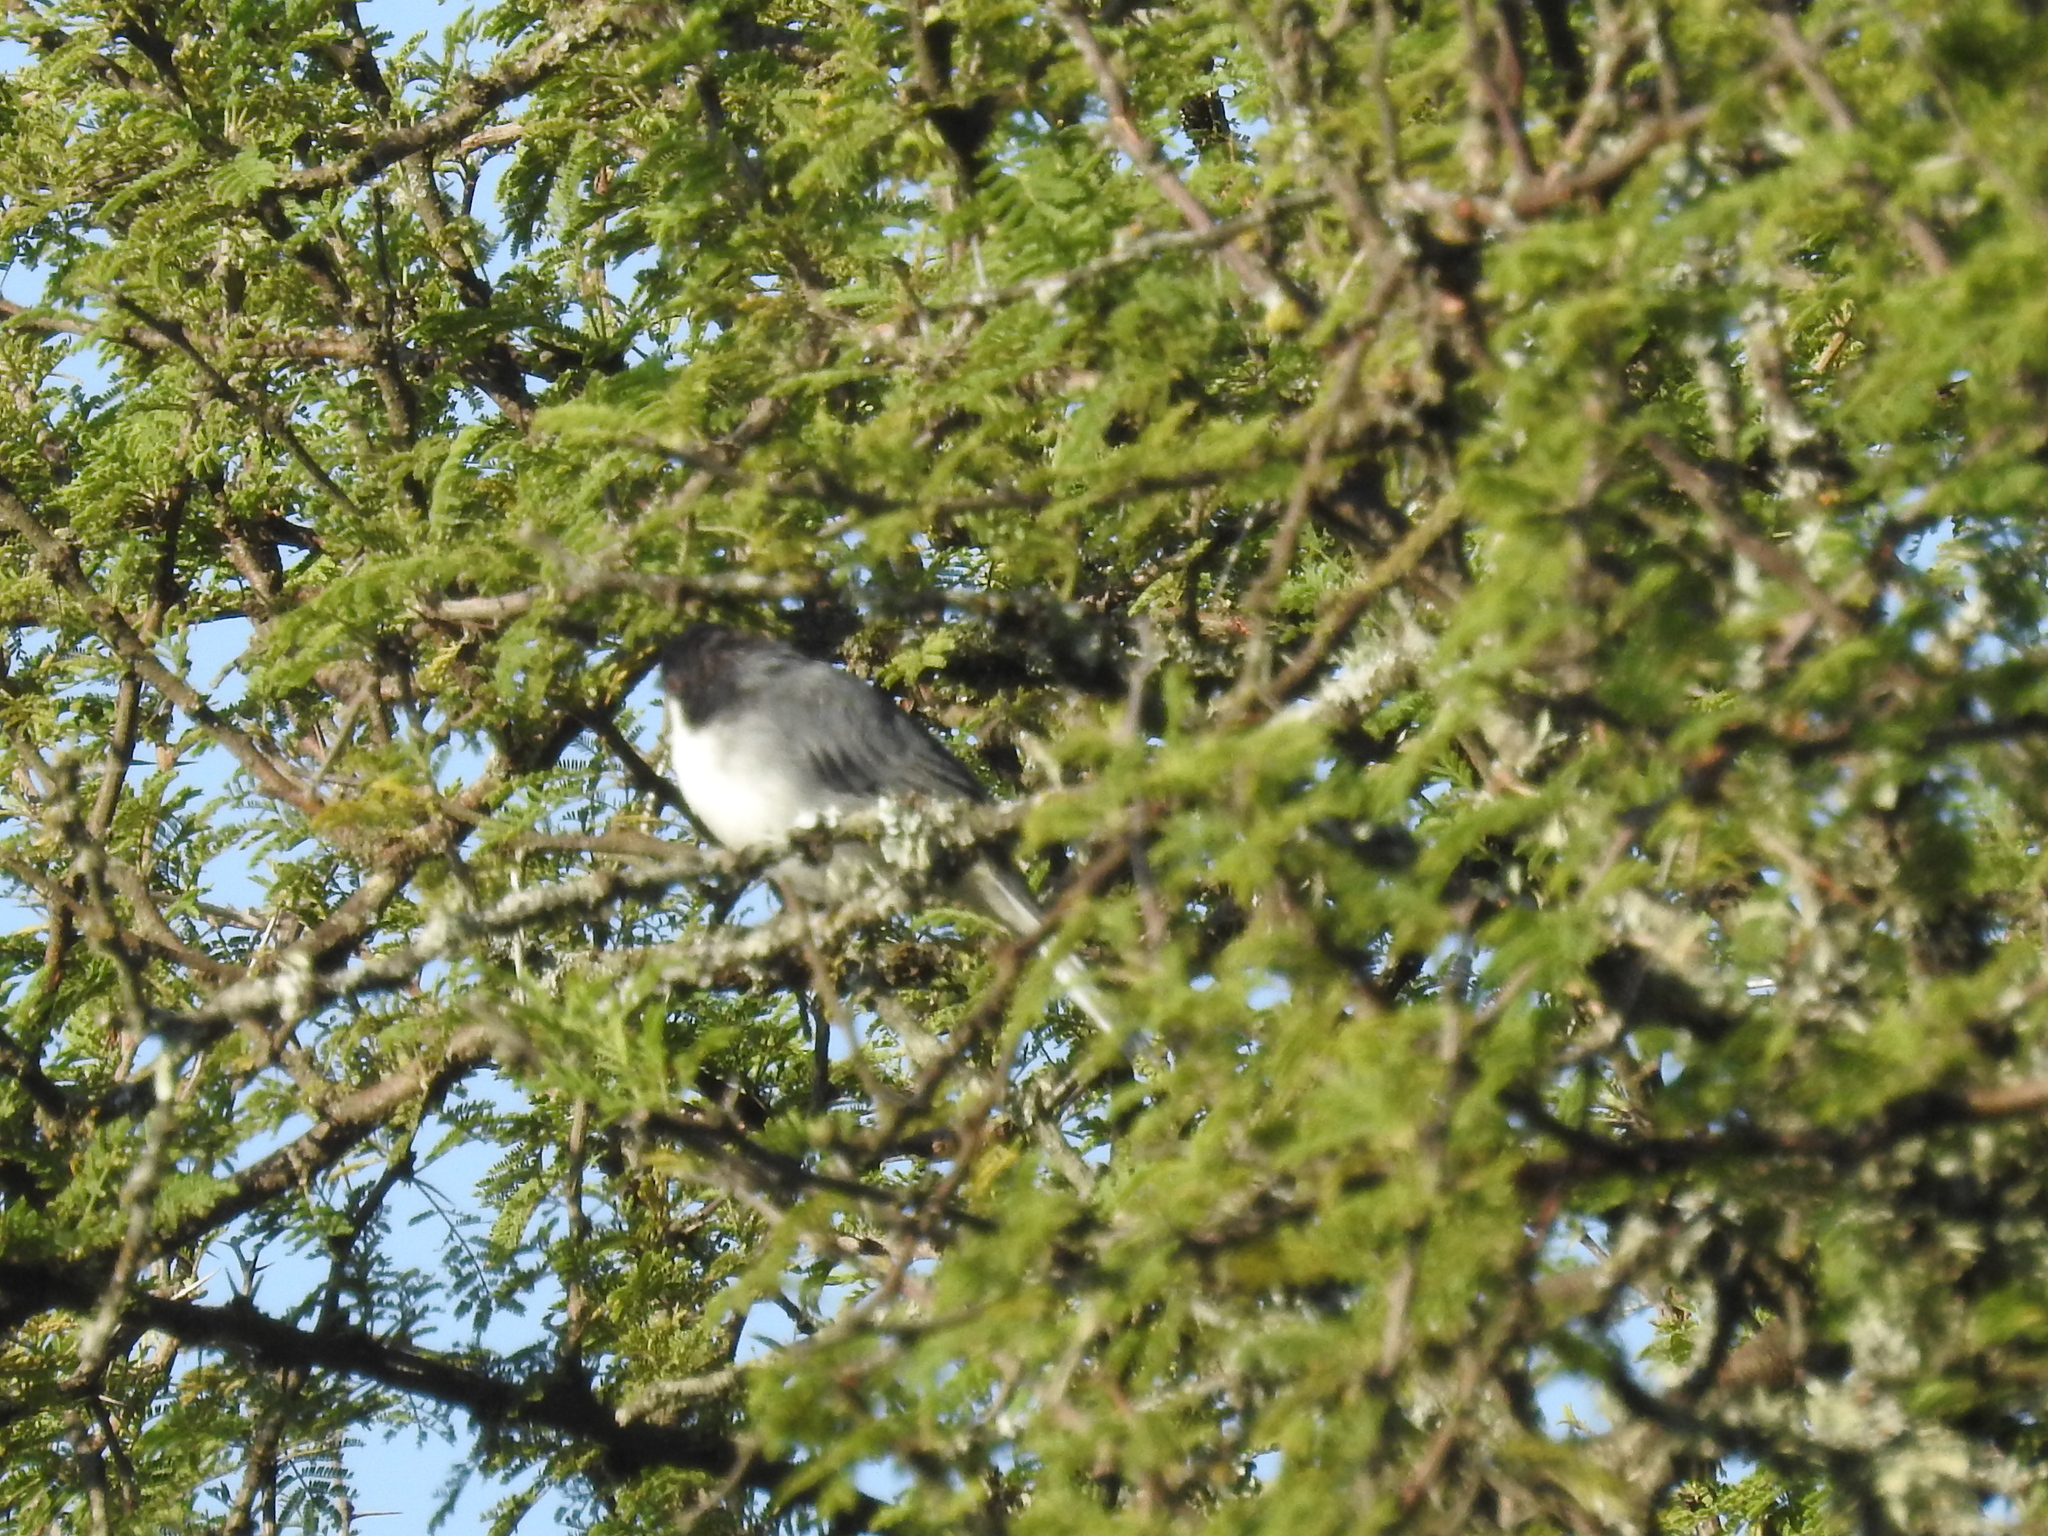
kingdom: Animalia
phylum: Chordata
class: Aves
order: Passeriformes
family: Thraupidae
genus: Microspingus
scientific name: Microspingus melanoleucus
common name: Black-capped warbling-finch
